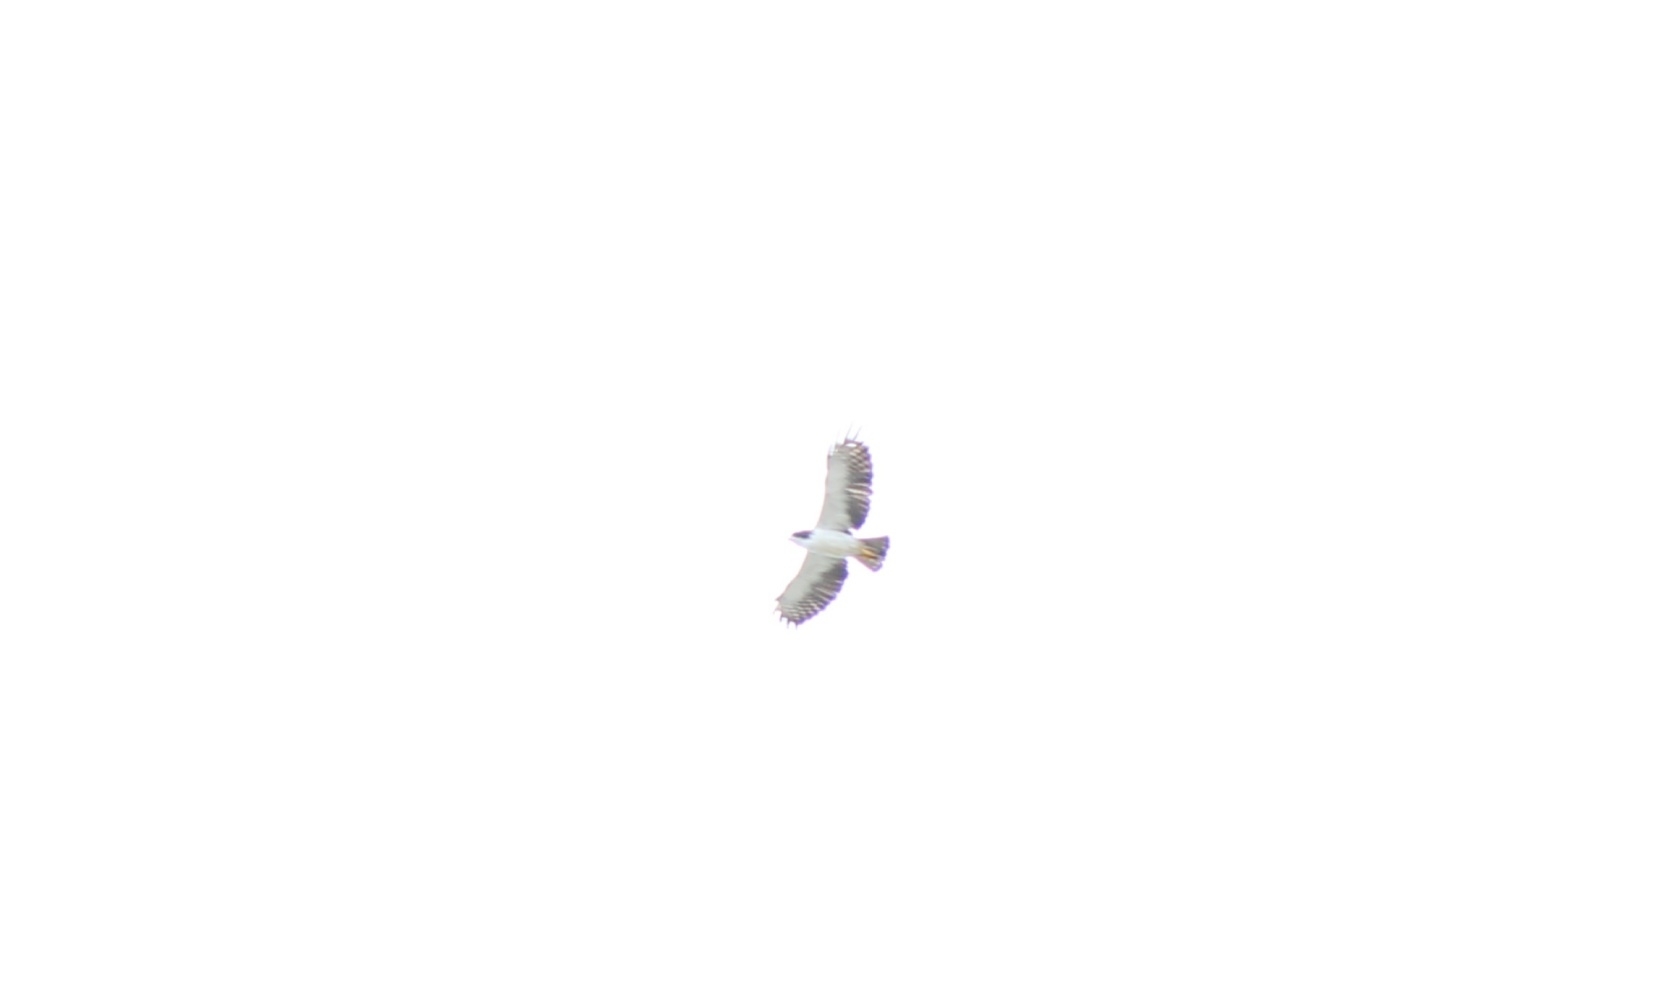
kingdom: Animalia
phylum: Chordata
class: Aves
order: Accipitriformes
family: Accipitridae
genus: Buteo
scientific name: Buteo brachyurus
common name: Short-tailed hawk
